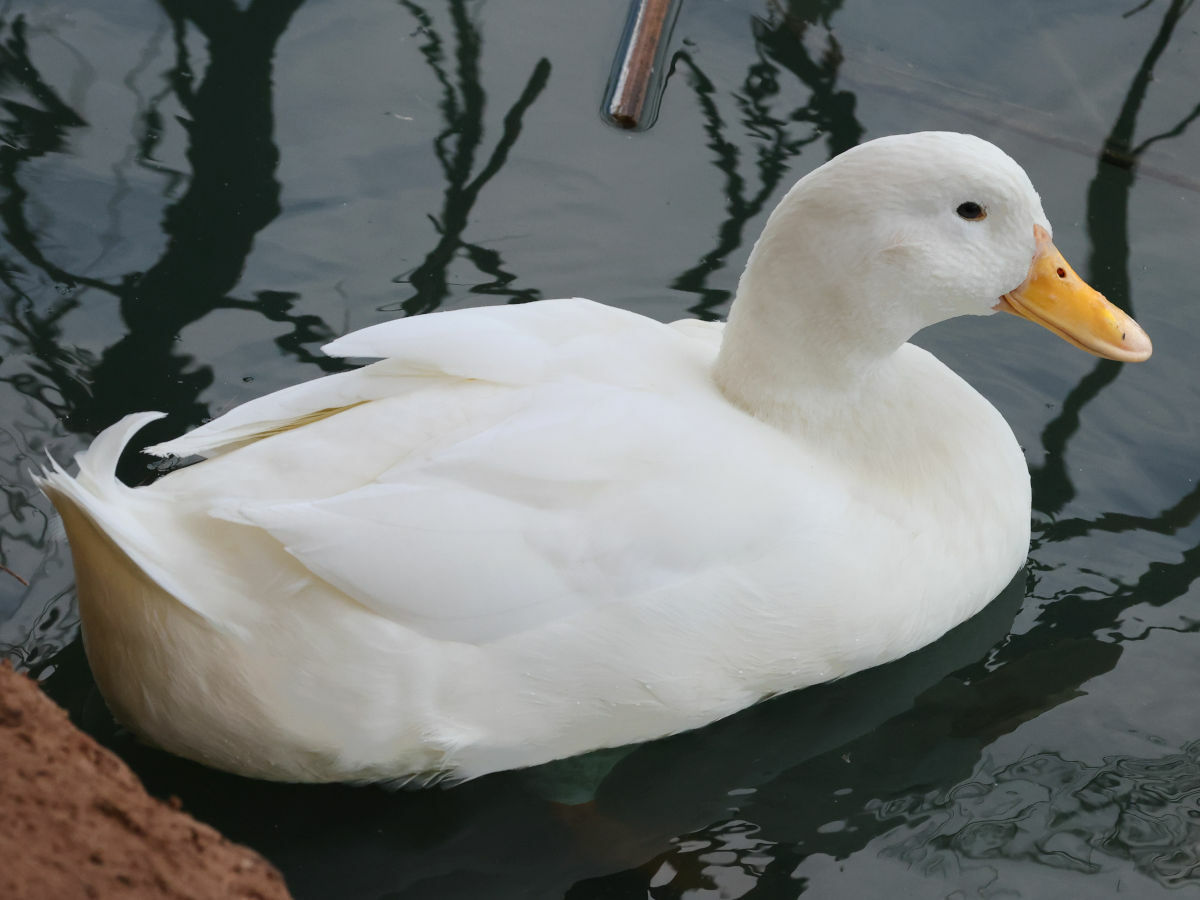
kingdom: Animalia
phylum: Chordata
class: Aves
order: Anseriformes
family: Anatidae
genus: Anas
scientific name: Anas platyrhynchos
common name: Mallard
